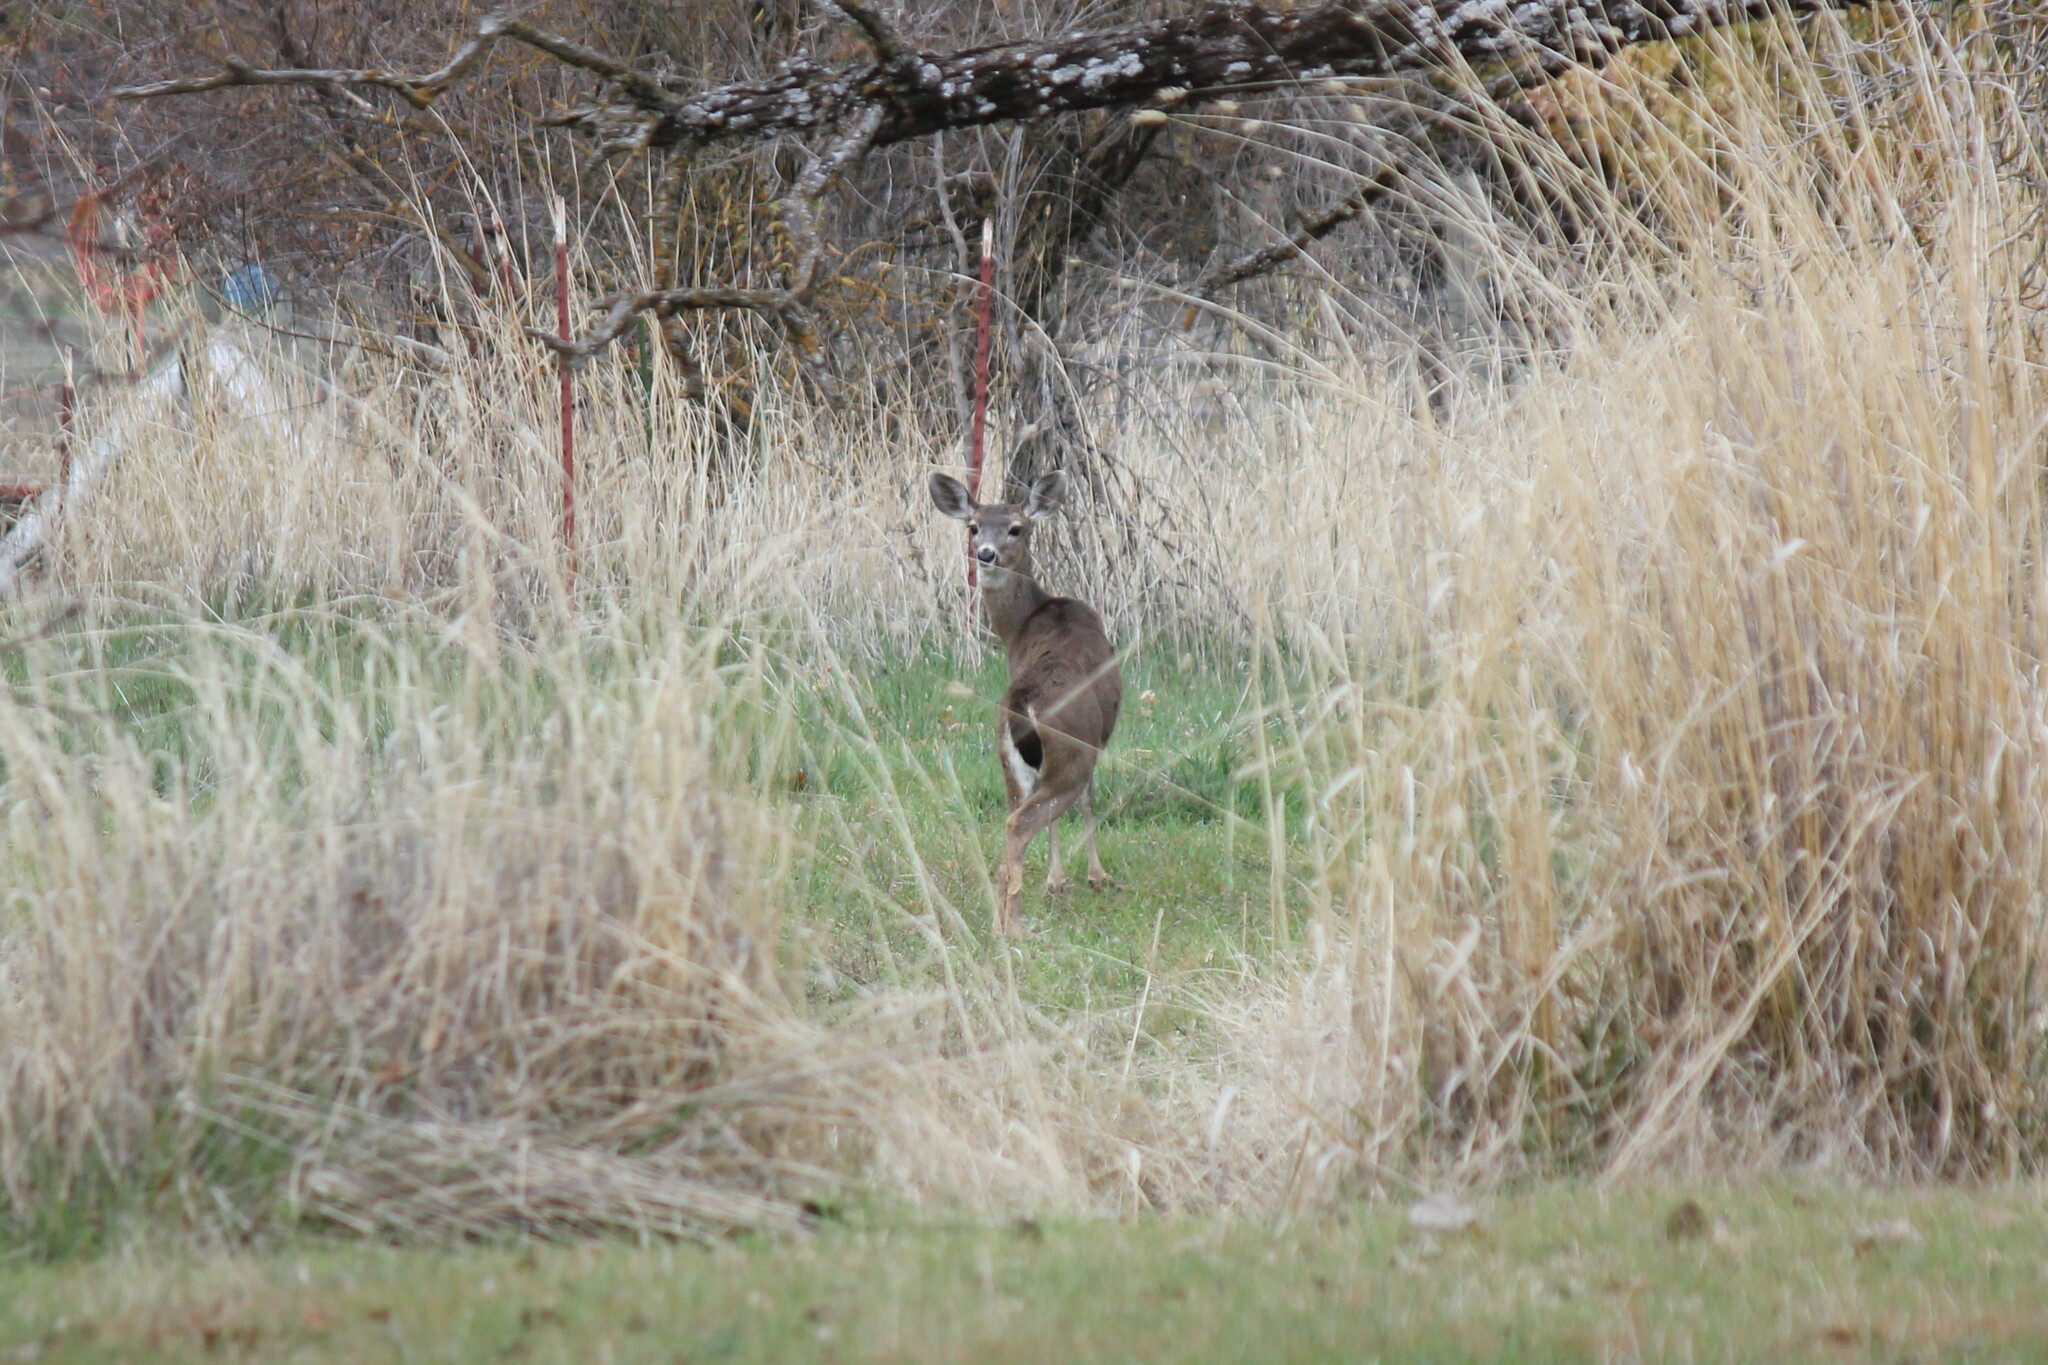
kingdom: Animalia
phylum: Chordata
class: Mammalia
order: Artiodactyla
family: Cervidae
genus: Odocoileus
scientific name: Odocoileus hemionus
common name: Mule deer
